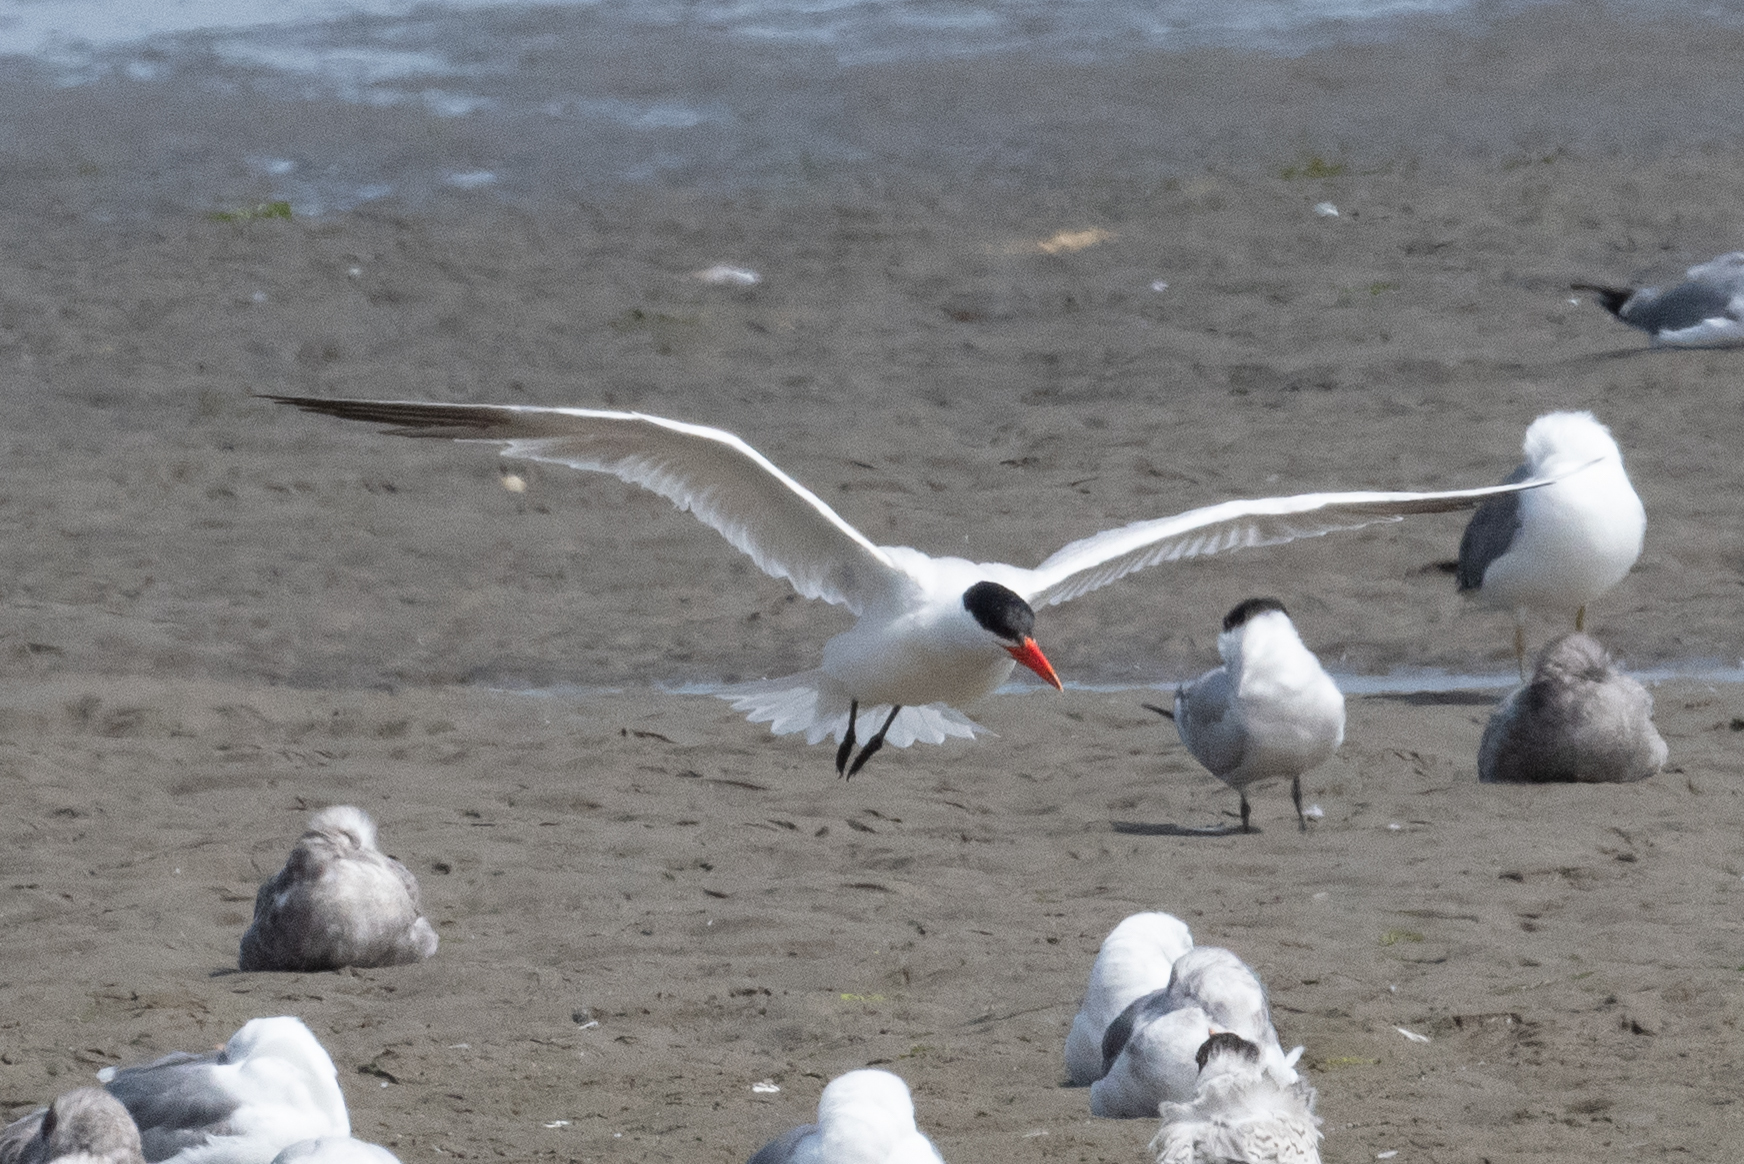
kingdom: Animalia
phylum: Chordata
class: Aves
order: Charadriiformes
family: Laridae
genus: Hydroprogne
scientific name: Hydroprogne caspia
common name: Caspian tern
